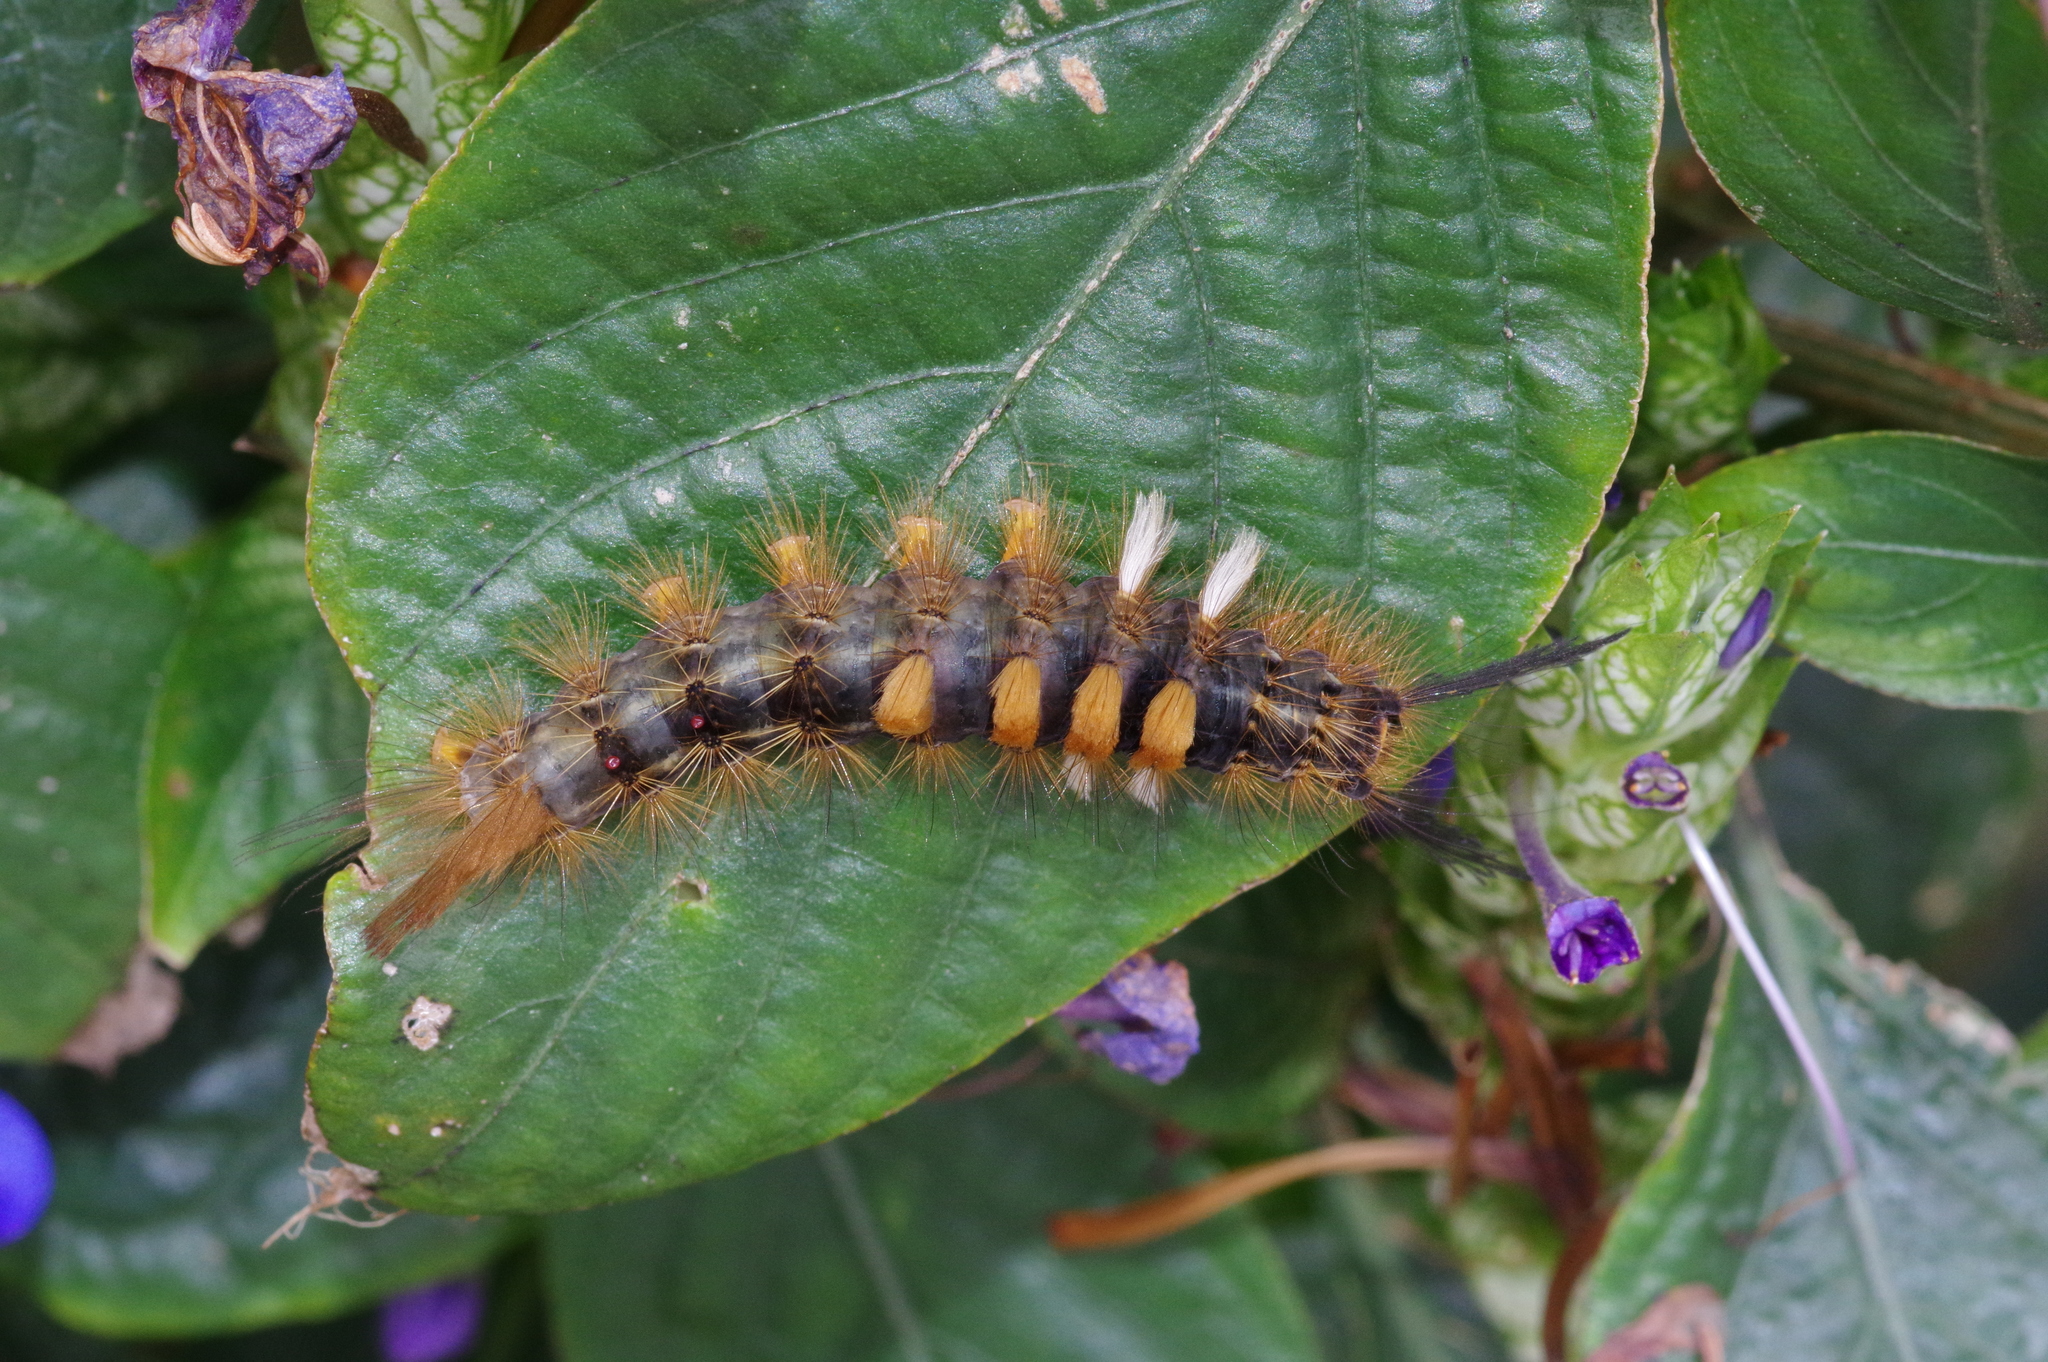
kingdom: Animalia
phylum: Arthropoda
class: Insecta
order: Lepidoptera
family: Erebidae
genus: Orgyia
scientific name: Orgyia postica
